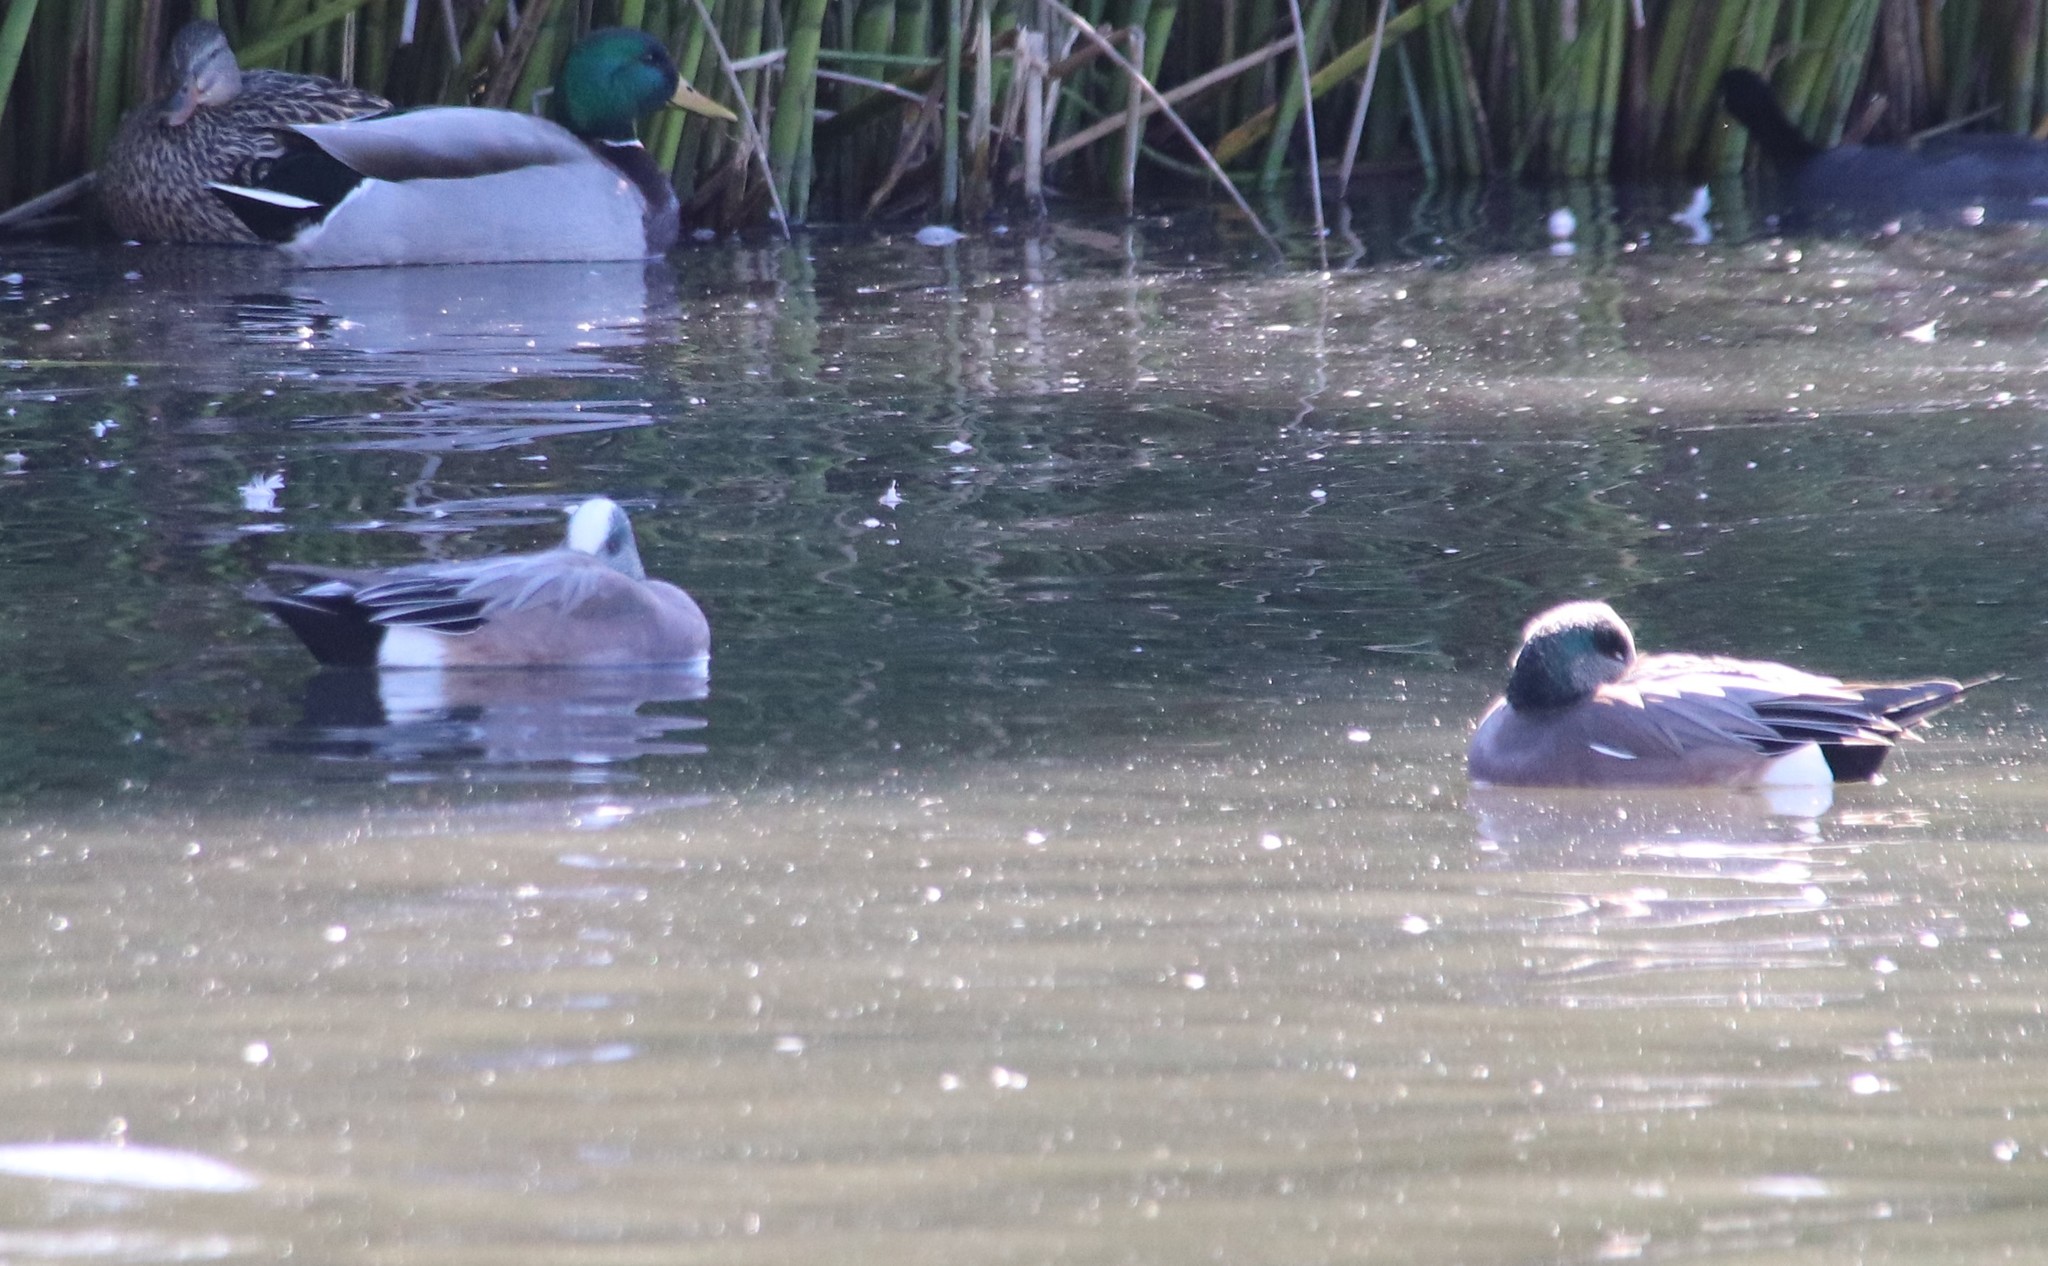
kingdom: Animalia
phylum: Chordata
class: Aves
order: Anseriformes
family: Anatidae
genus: Mareca
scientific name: Mareca americana
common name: American wigeon
